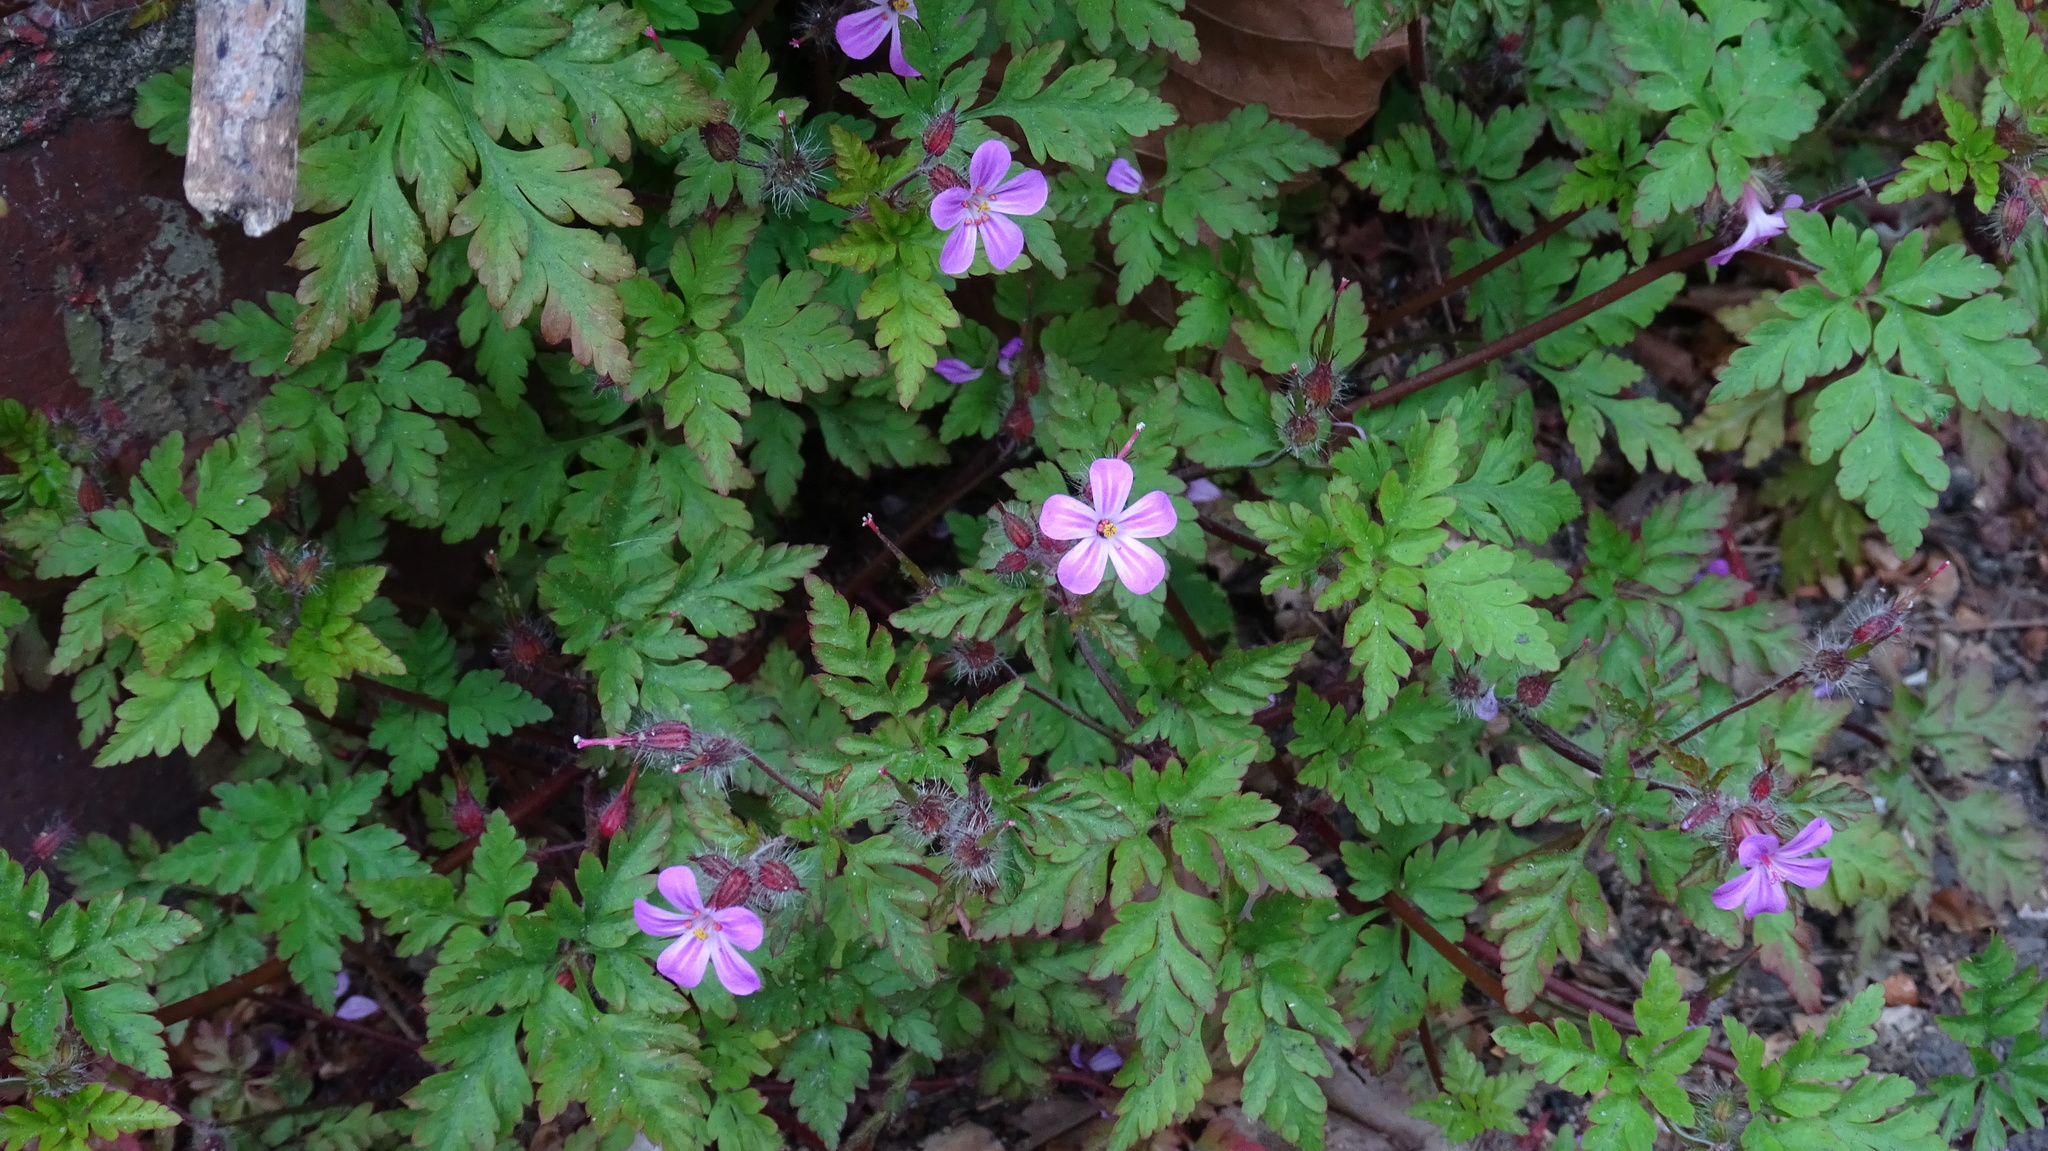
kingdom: Plantae
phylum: Tracheophyta
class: Magnoliopsida
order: Geraniales
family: Geraniaceae
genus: Geranium
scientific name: Geranium robertianum
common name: Herb-robert
